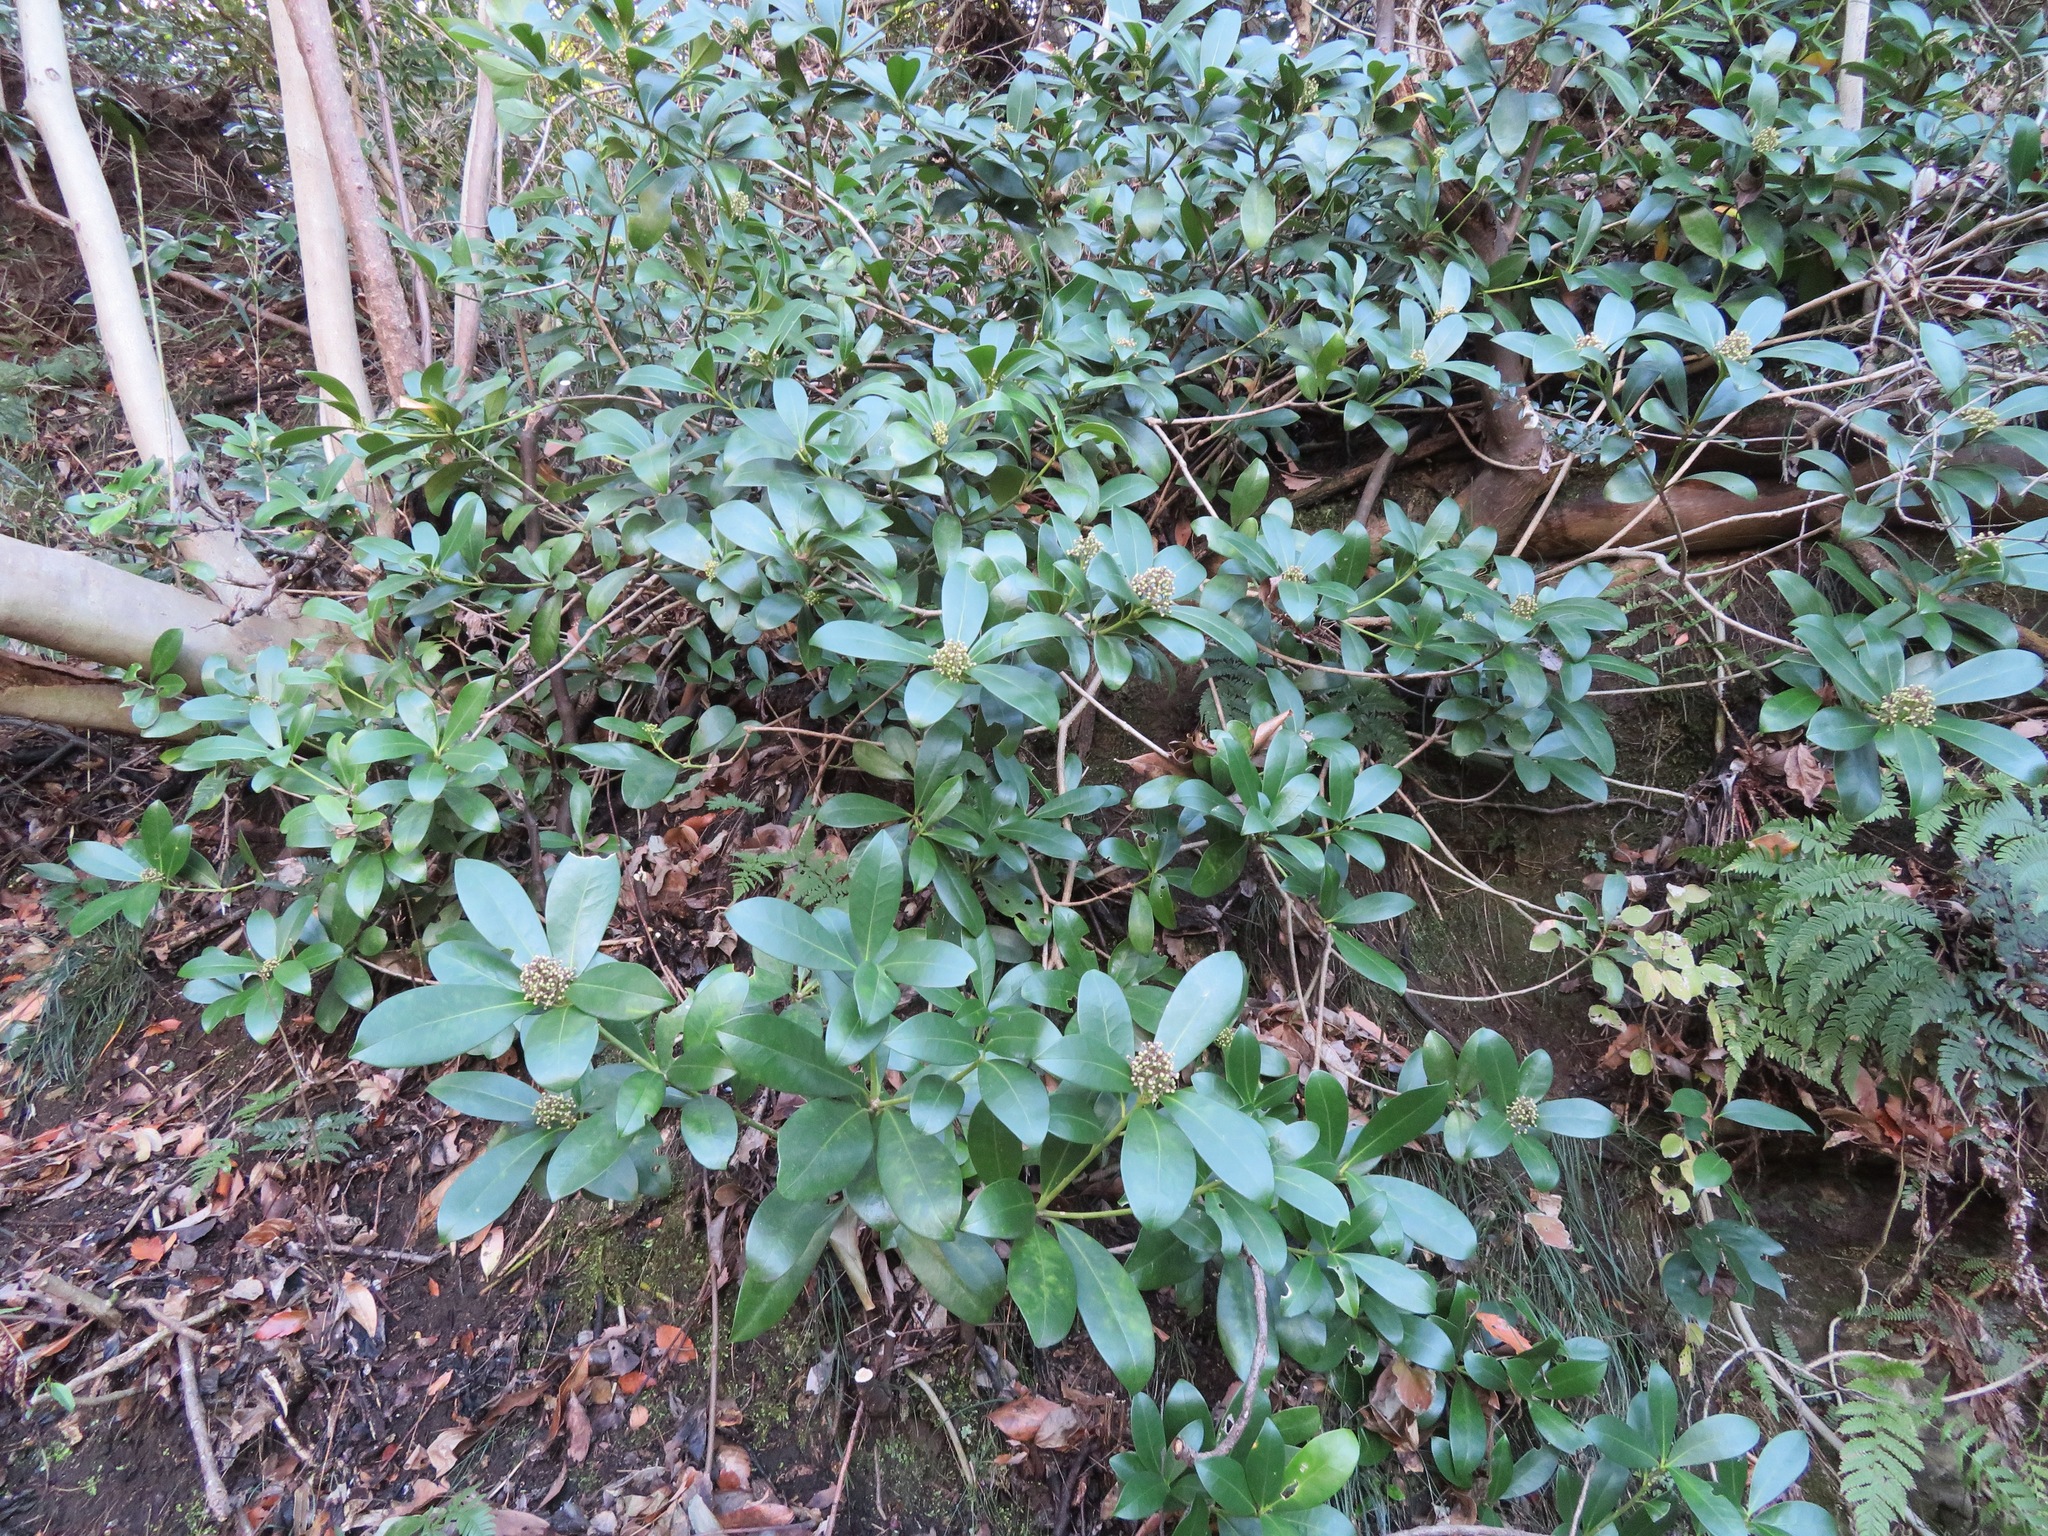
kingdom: Plantae
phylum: Tracheophyta
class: Magnoliopsida
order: Sapindales
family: Rutaceae
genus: Skimmia
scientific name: Skimmia japonica
